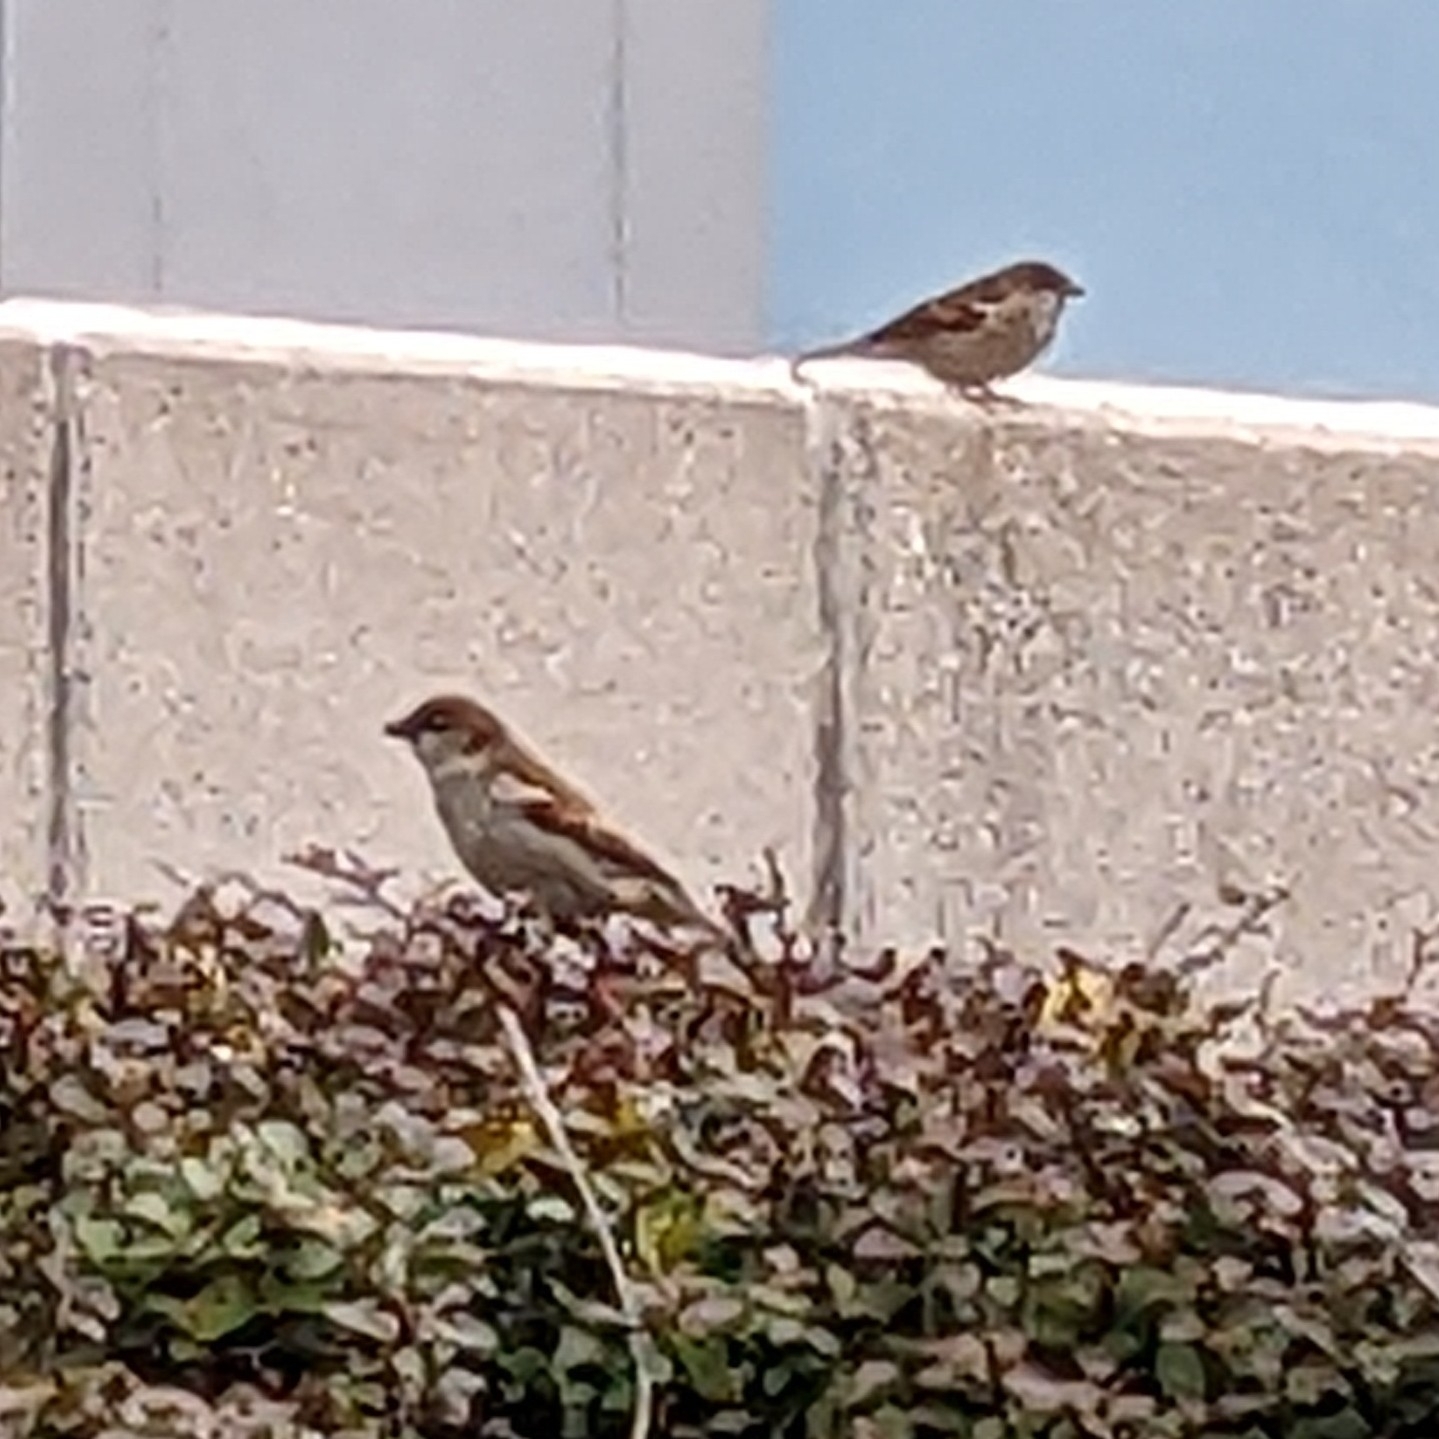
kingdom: Animalia
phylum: Chordata
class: Aves
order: Passeriformes
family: Passeridae
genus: Passer
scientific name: Passer domesticus
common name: House sparrow
